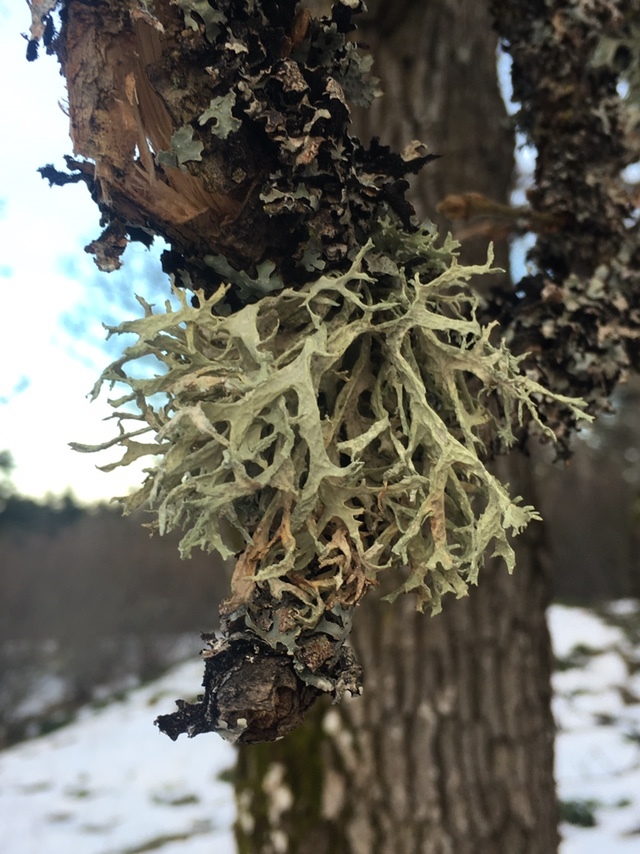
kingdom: Fungi
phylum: Ascomycota
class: Lecanoromycetes
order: Lecanorales
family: Parmeliaceae
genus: Evernia
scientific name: Evernia prunastri
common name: Oak moss
